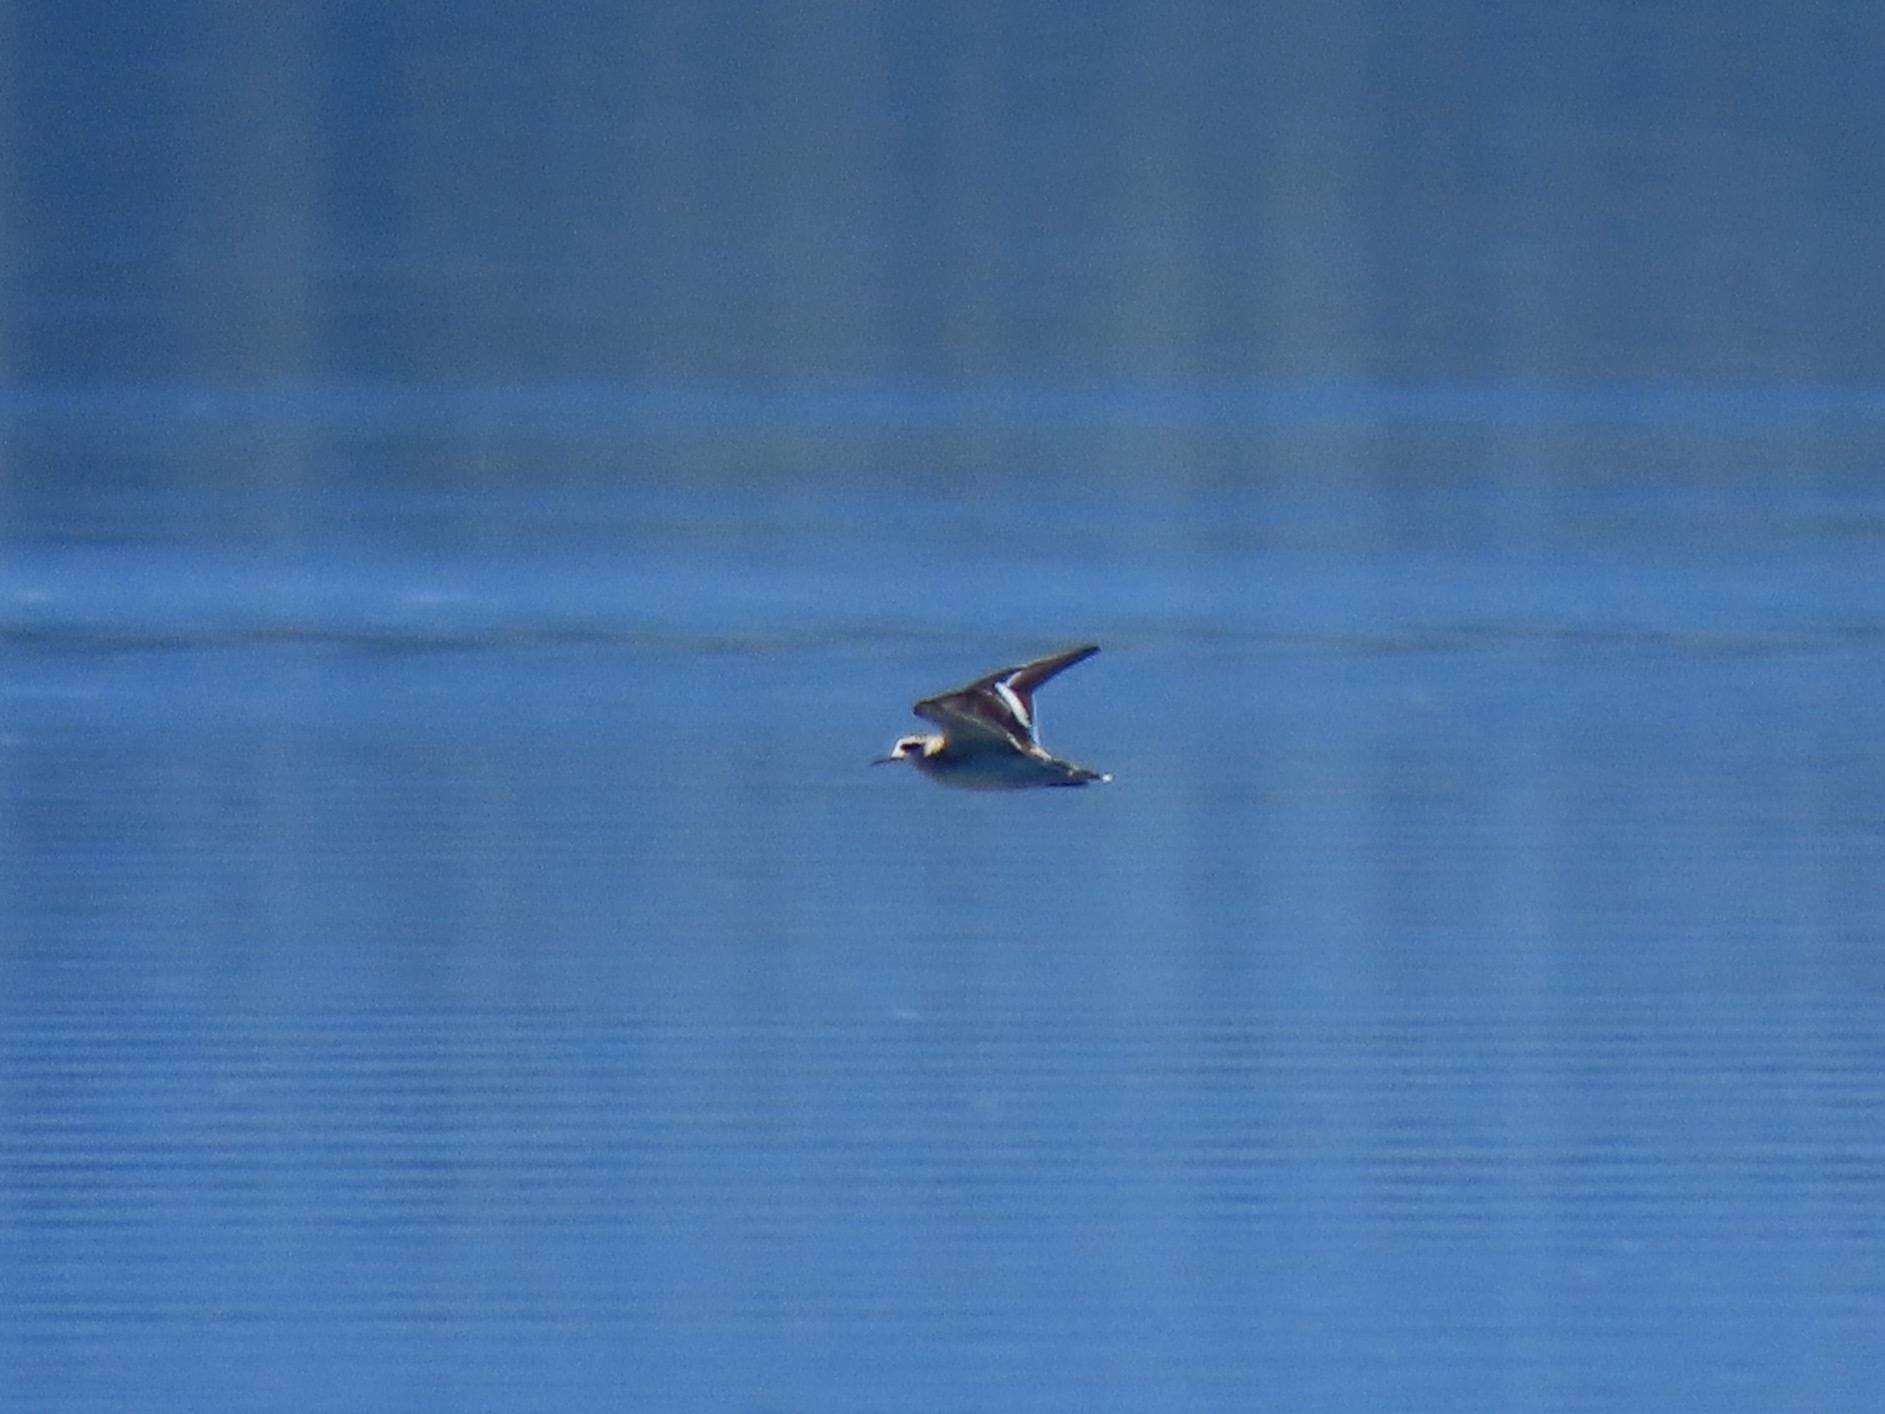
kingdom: Animalia
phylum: Chordata
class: Aves
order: Charadriiformes
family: Scolopacidae
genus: Phalaropus
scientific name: Phalaropus lobatus
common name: Red-necked phalarope
